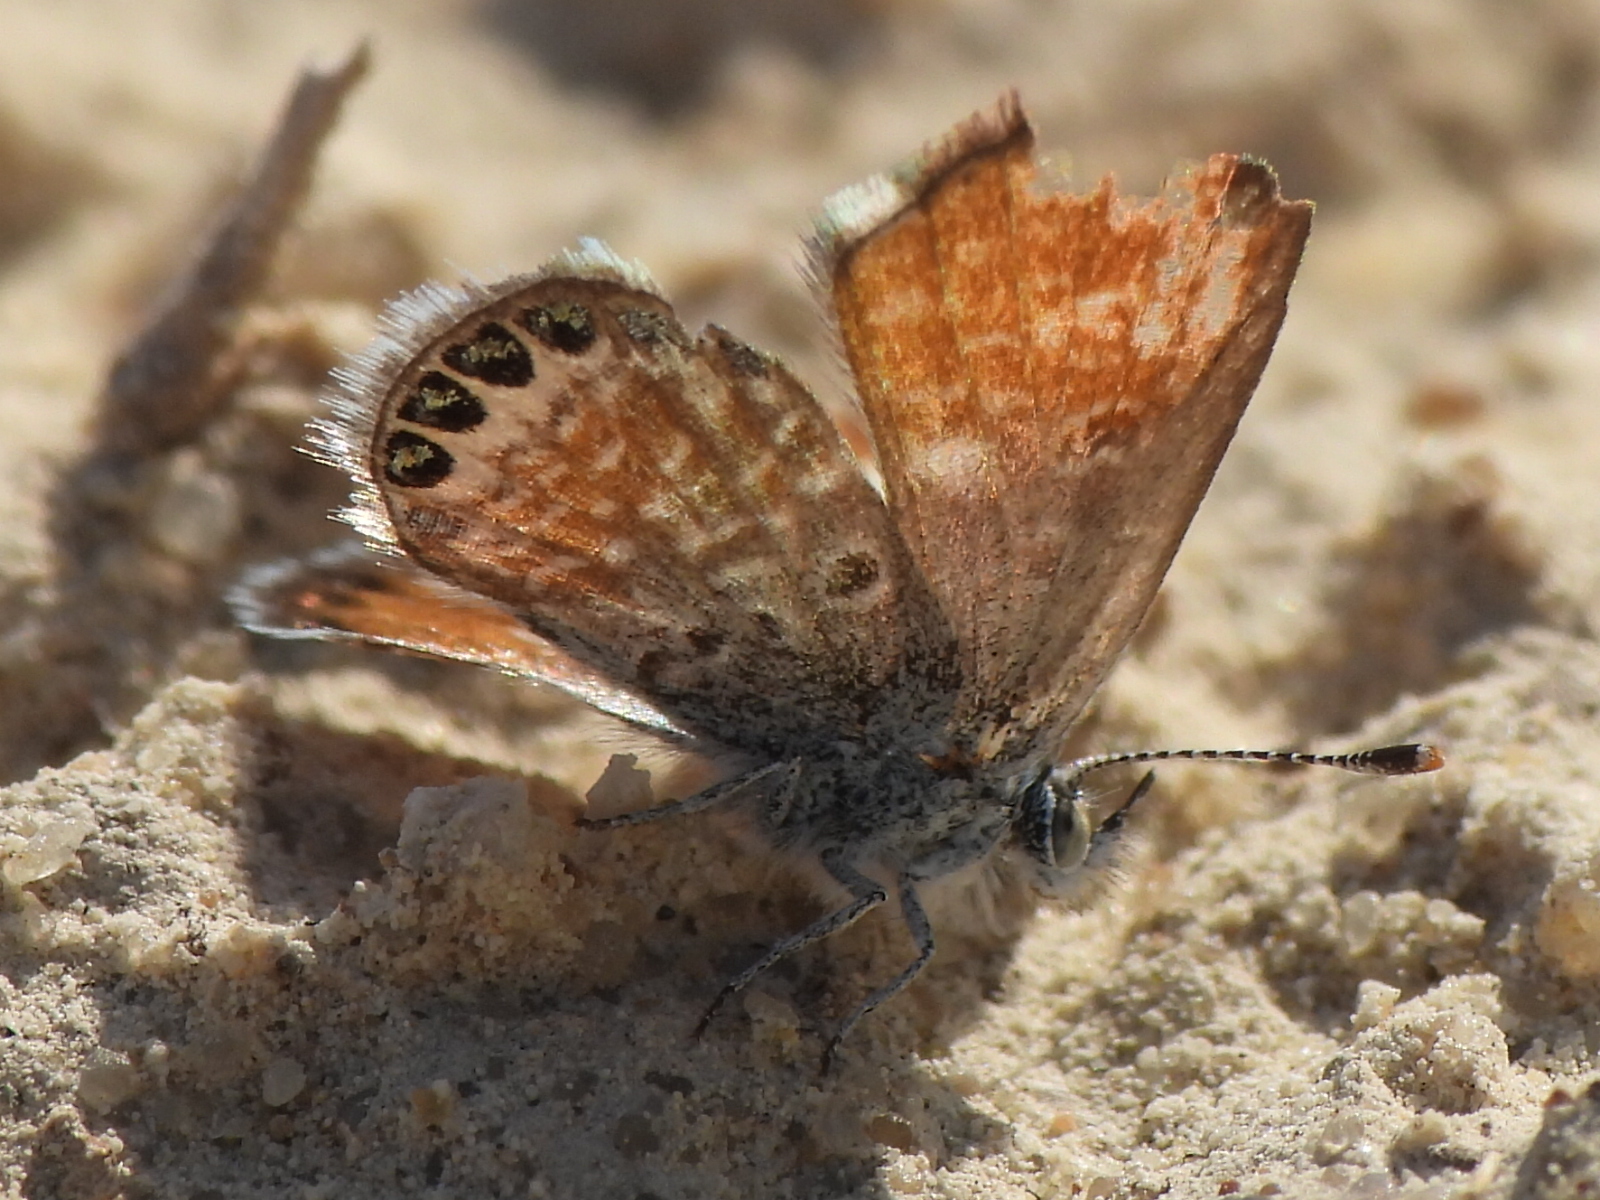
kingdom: Animalia
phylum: Arthropoda
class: Insecta
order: Lepidoptera
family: Lycaenidae
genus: Brephidium
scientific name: Brephidium exilis
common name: Pygmy blue
